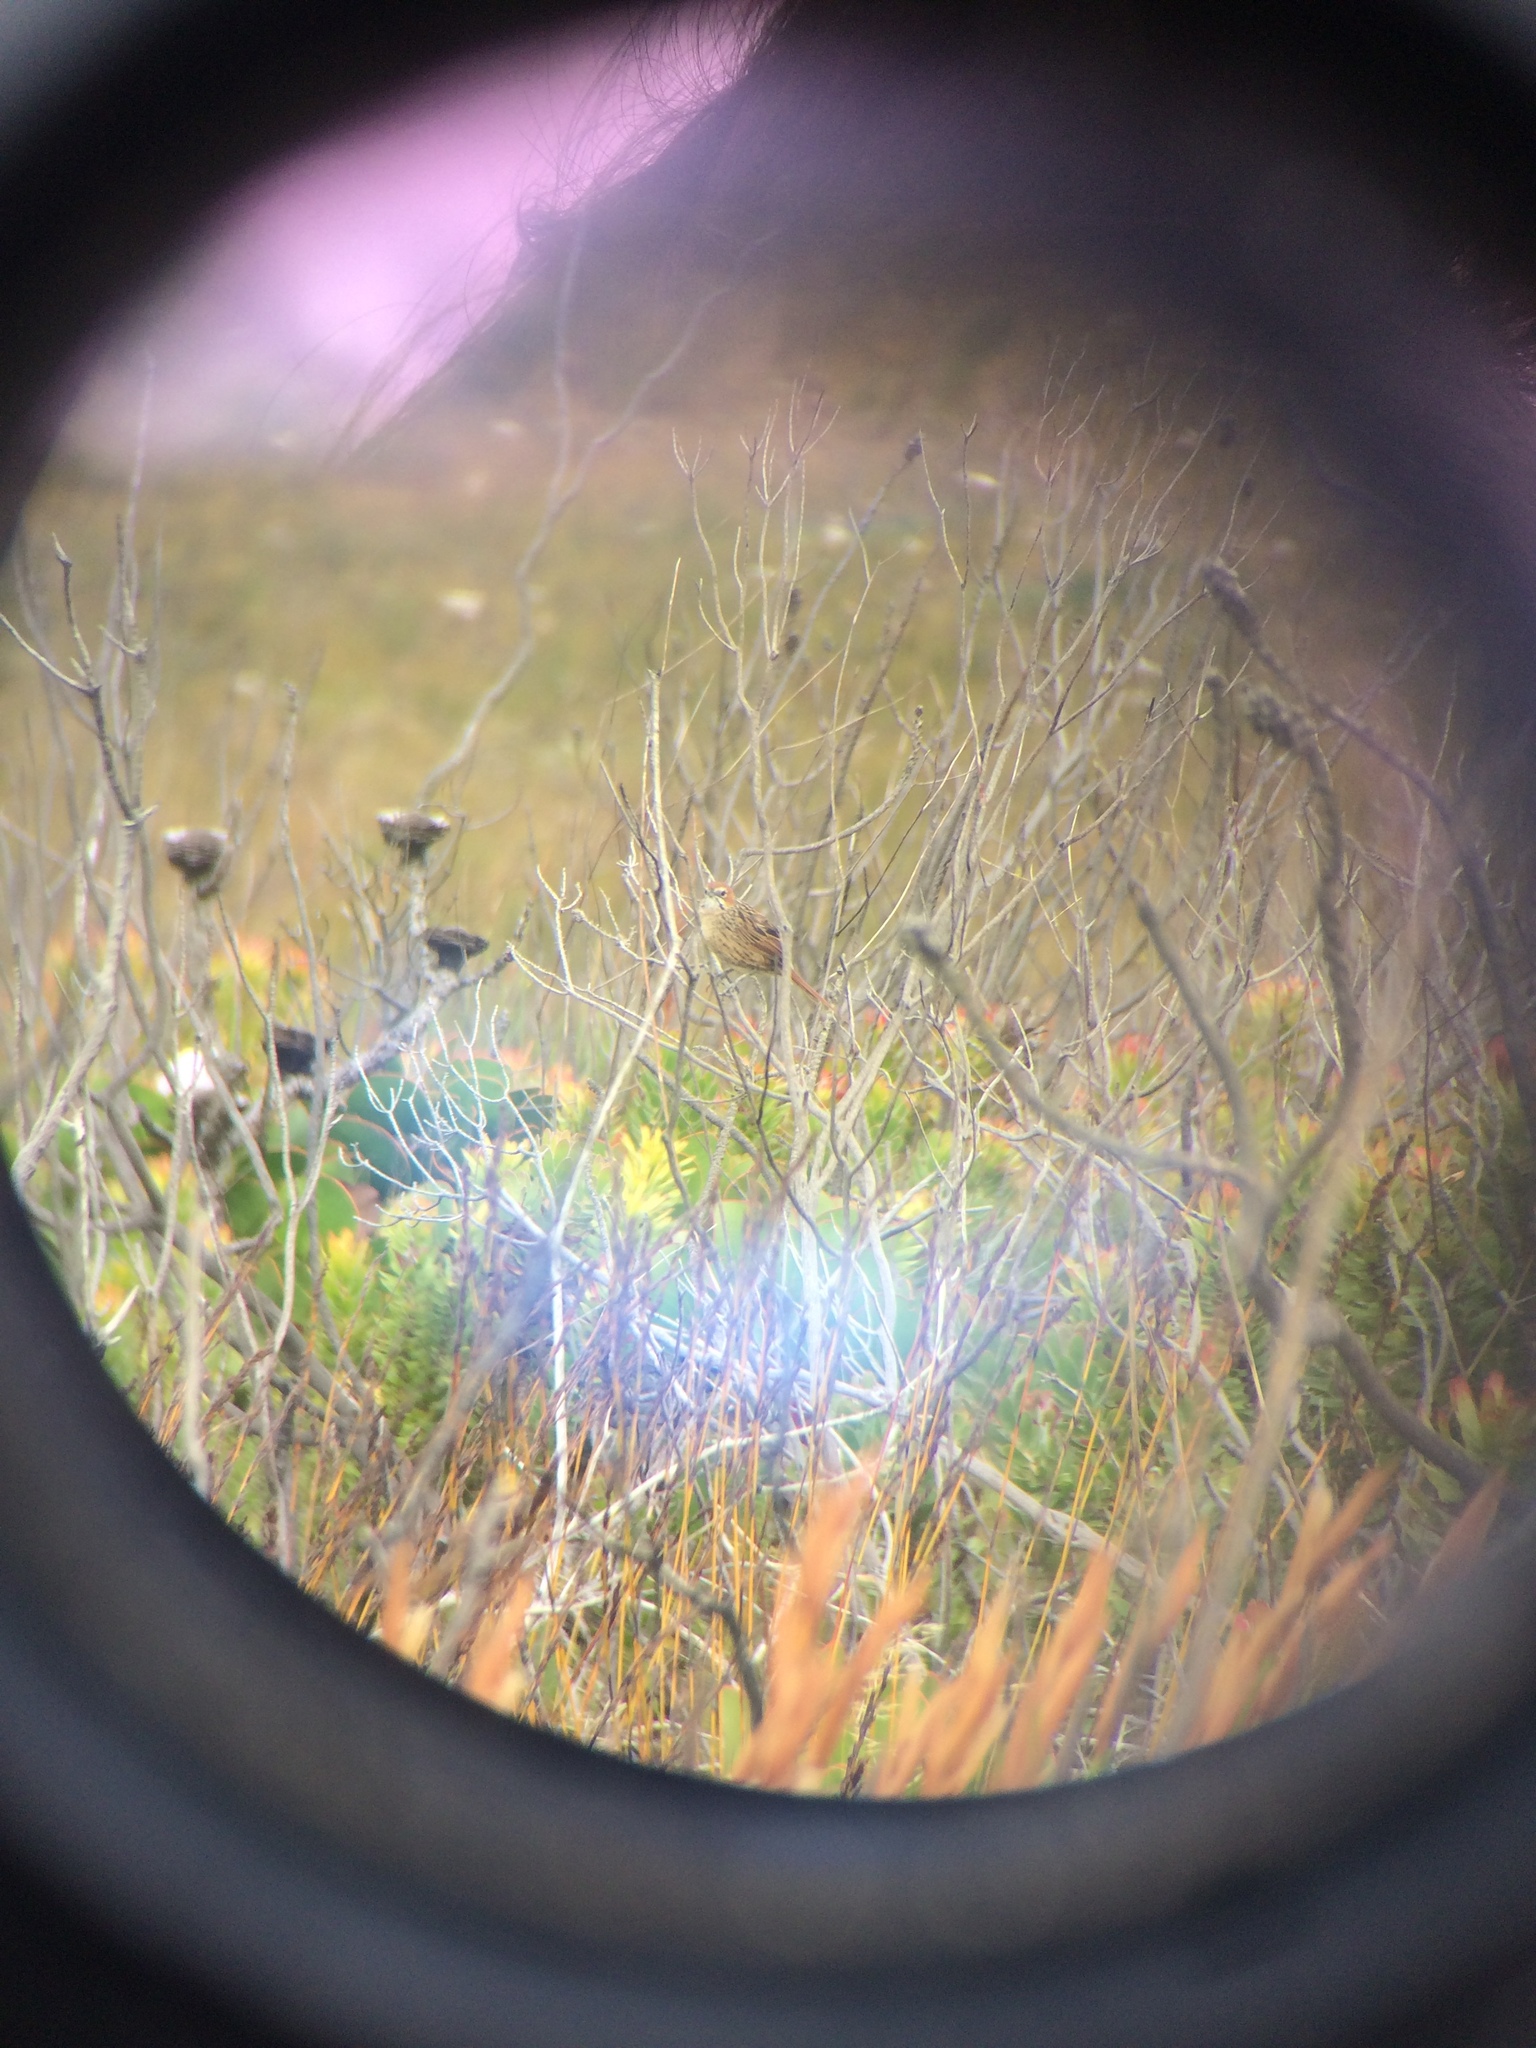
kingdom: Animalia
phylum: Chordata
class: Aves
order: Passeriformes
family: Macrosphenidae
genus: Sphenoeacus
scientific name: Sphenoeacus afer
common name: Cape grassbird
